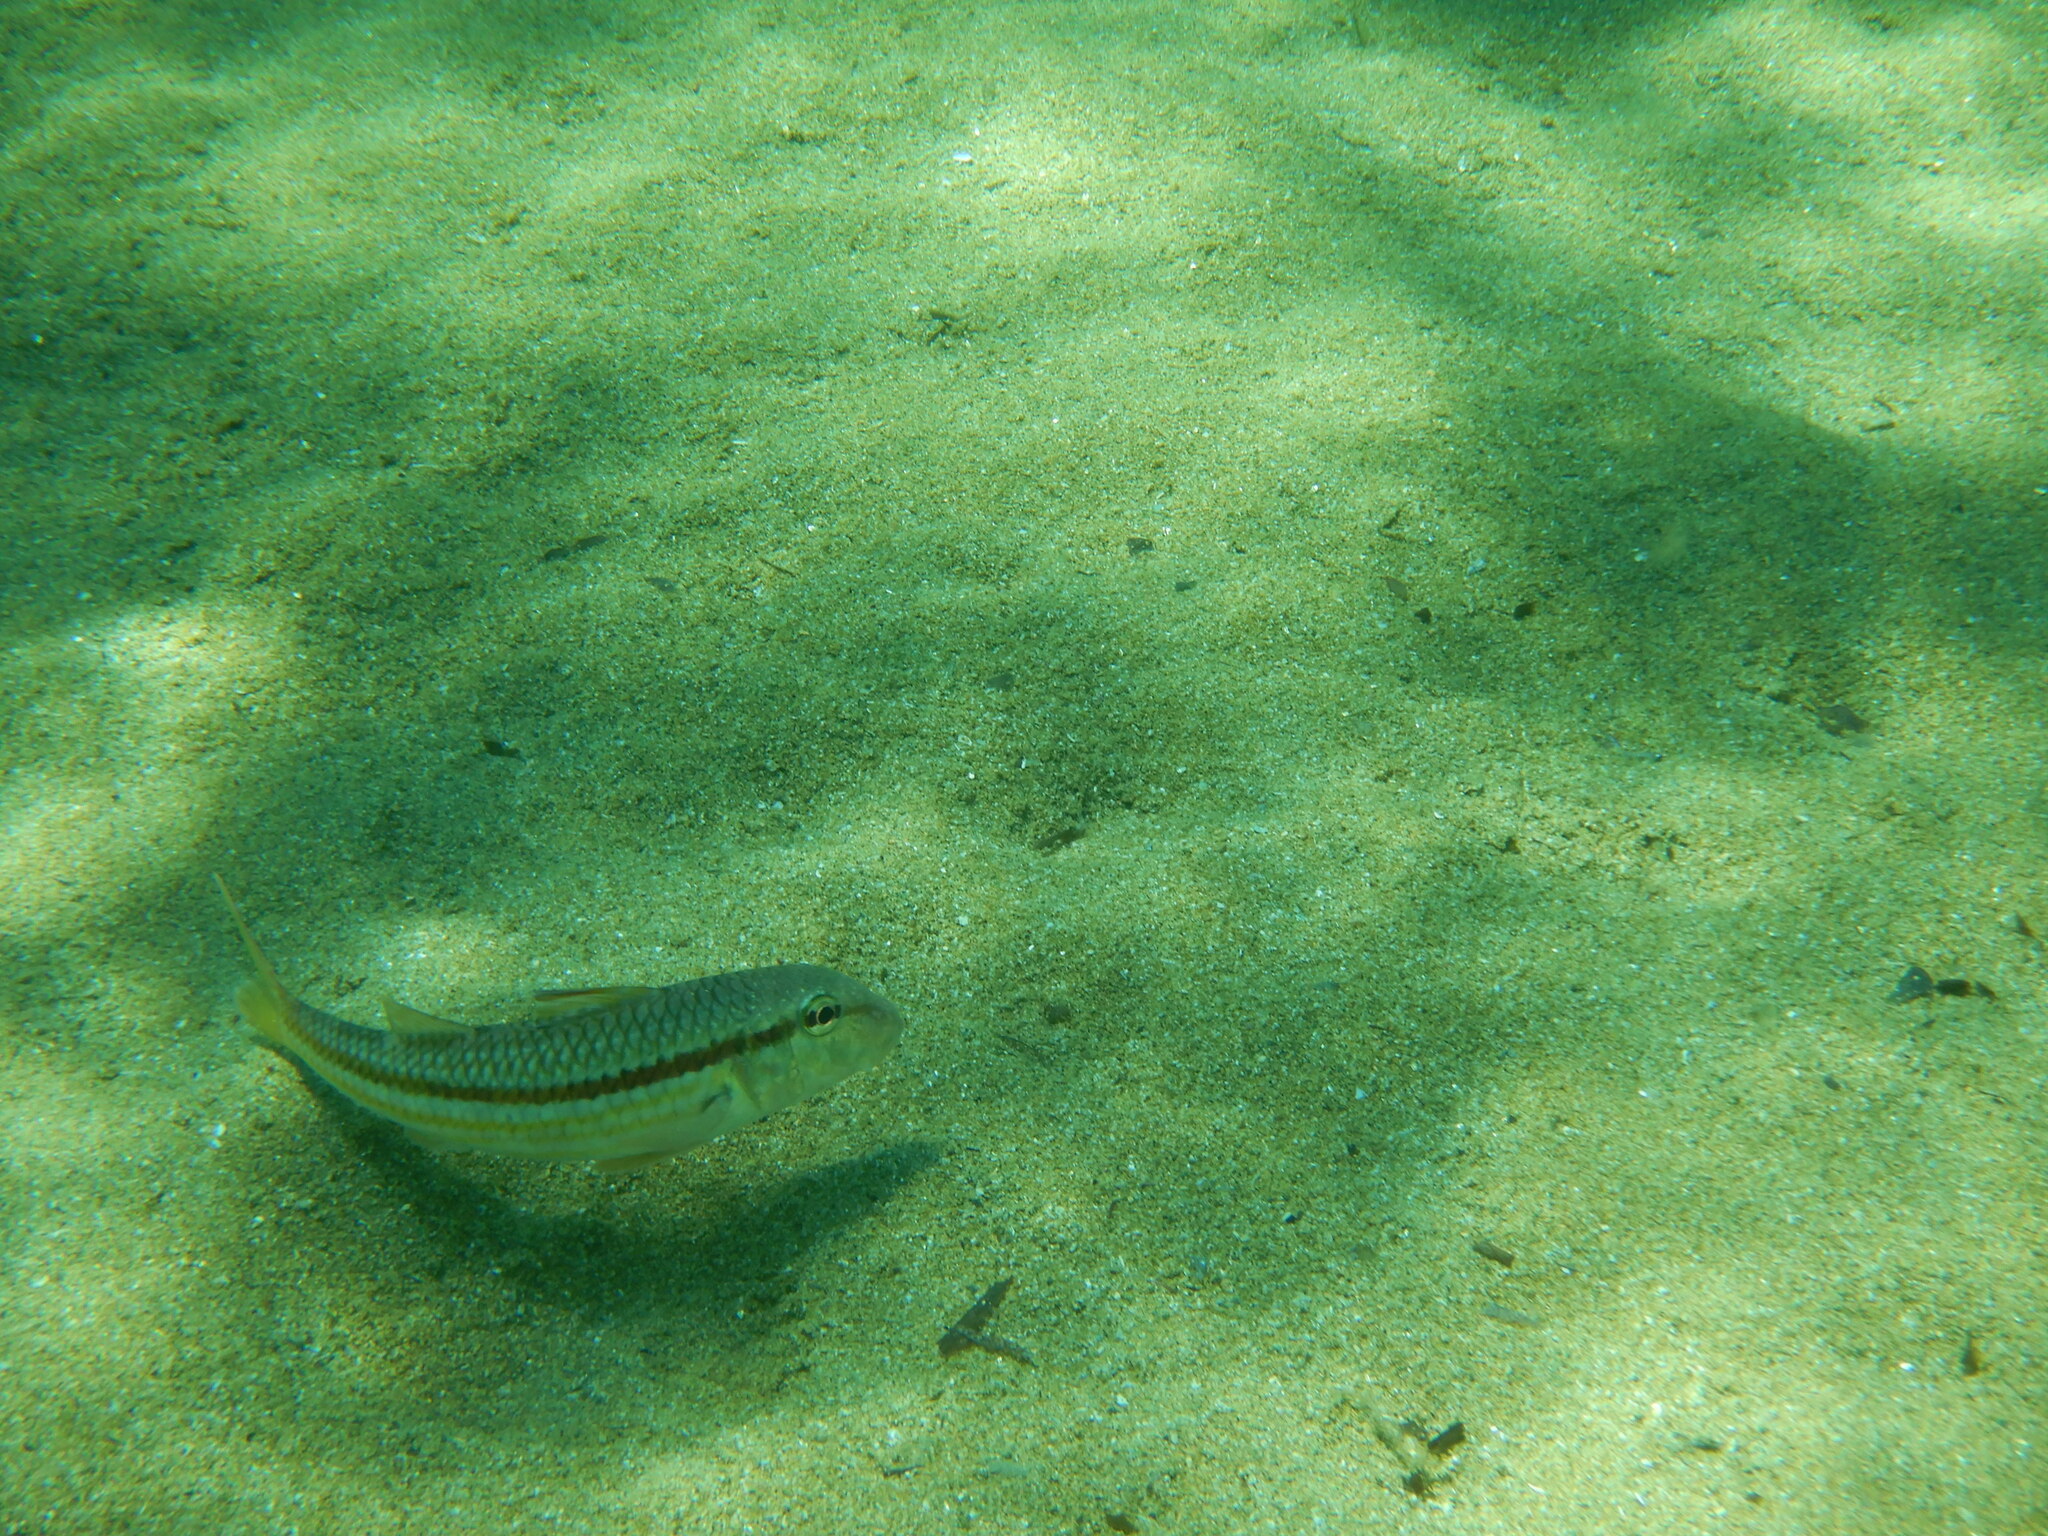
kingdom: Animalia
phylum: Chordata
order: Perciformes
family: Mullidae
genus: Mullus
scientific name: Mullus surmuletus
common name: Red mullet
